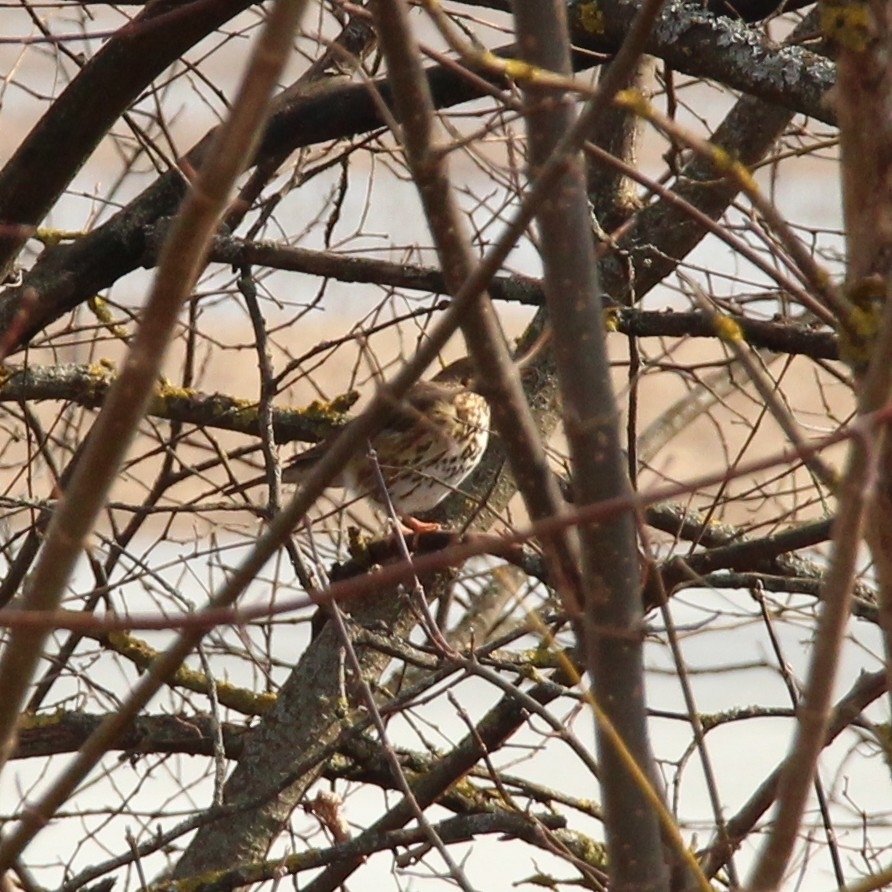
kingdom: Animalia
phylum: Chordata
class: Aves
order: Passeriformes
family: Turdidae
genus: Turdus
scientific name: Turdus philomelos
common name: Song thrush
